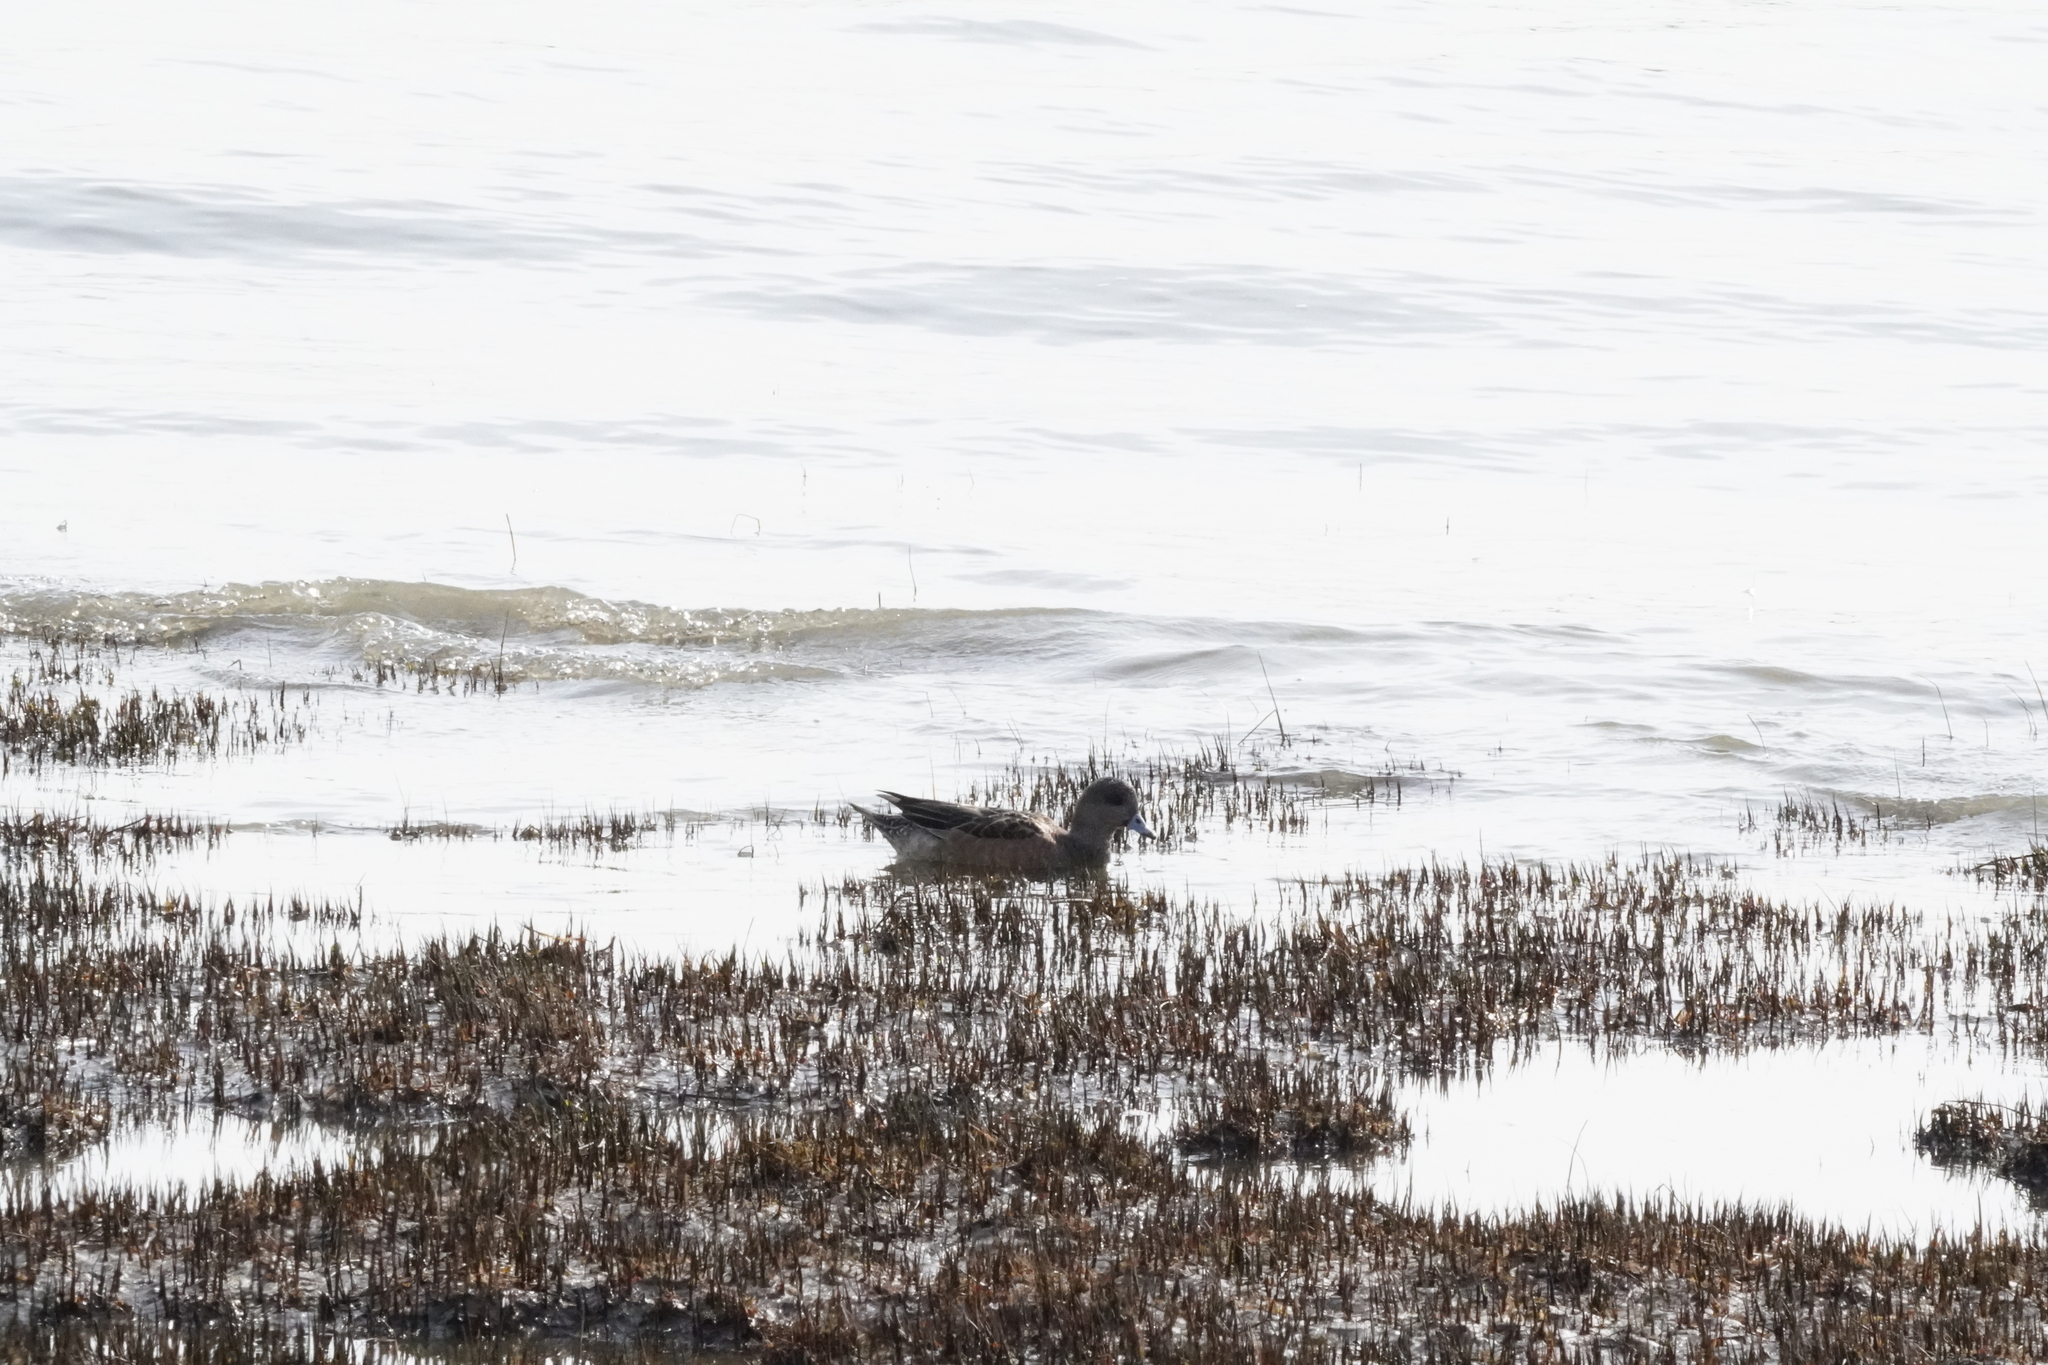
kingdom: Animalia
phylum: Chordata
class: Aves
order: Anseriformes
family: Anatidae
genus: Mareca
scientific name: Mareca americana
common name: American wigeon
